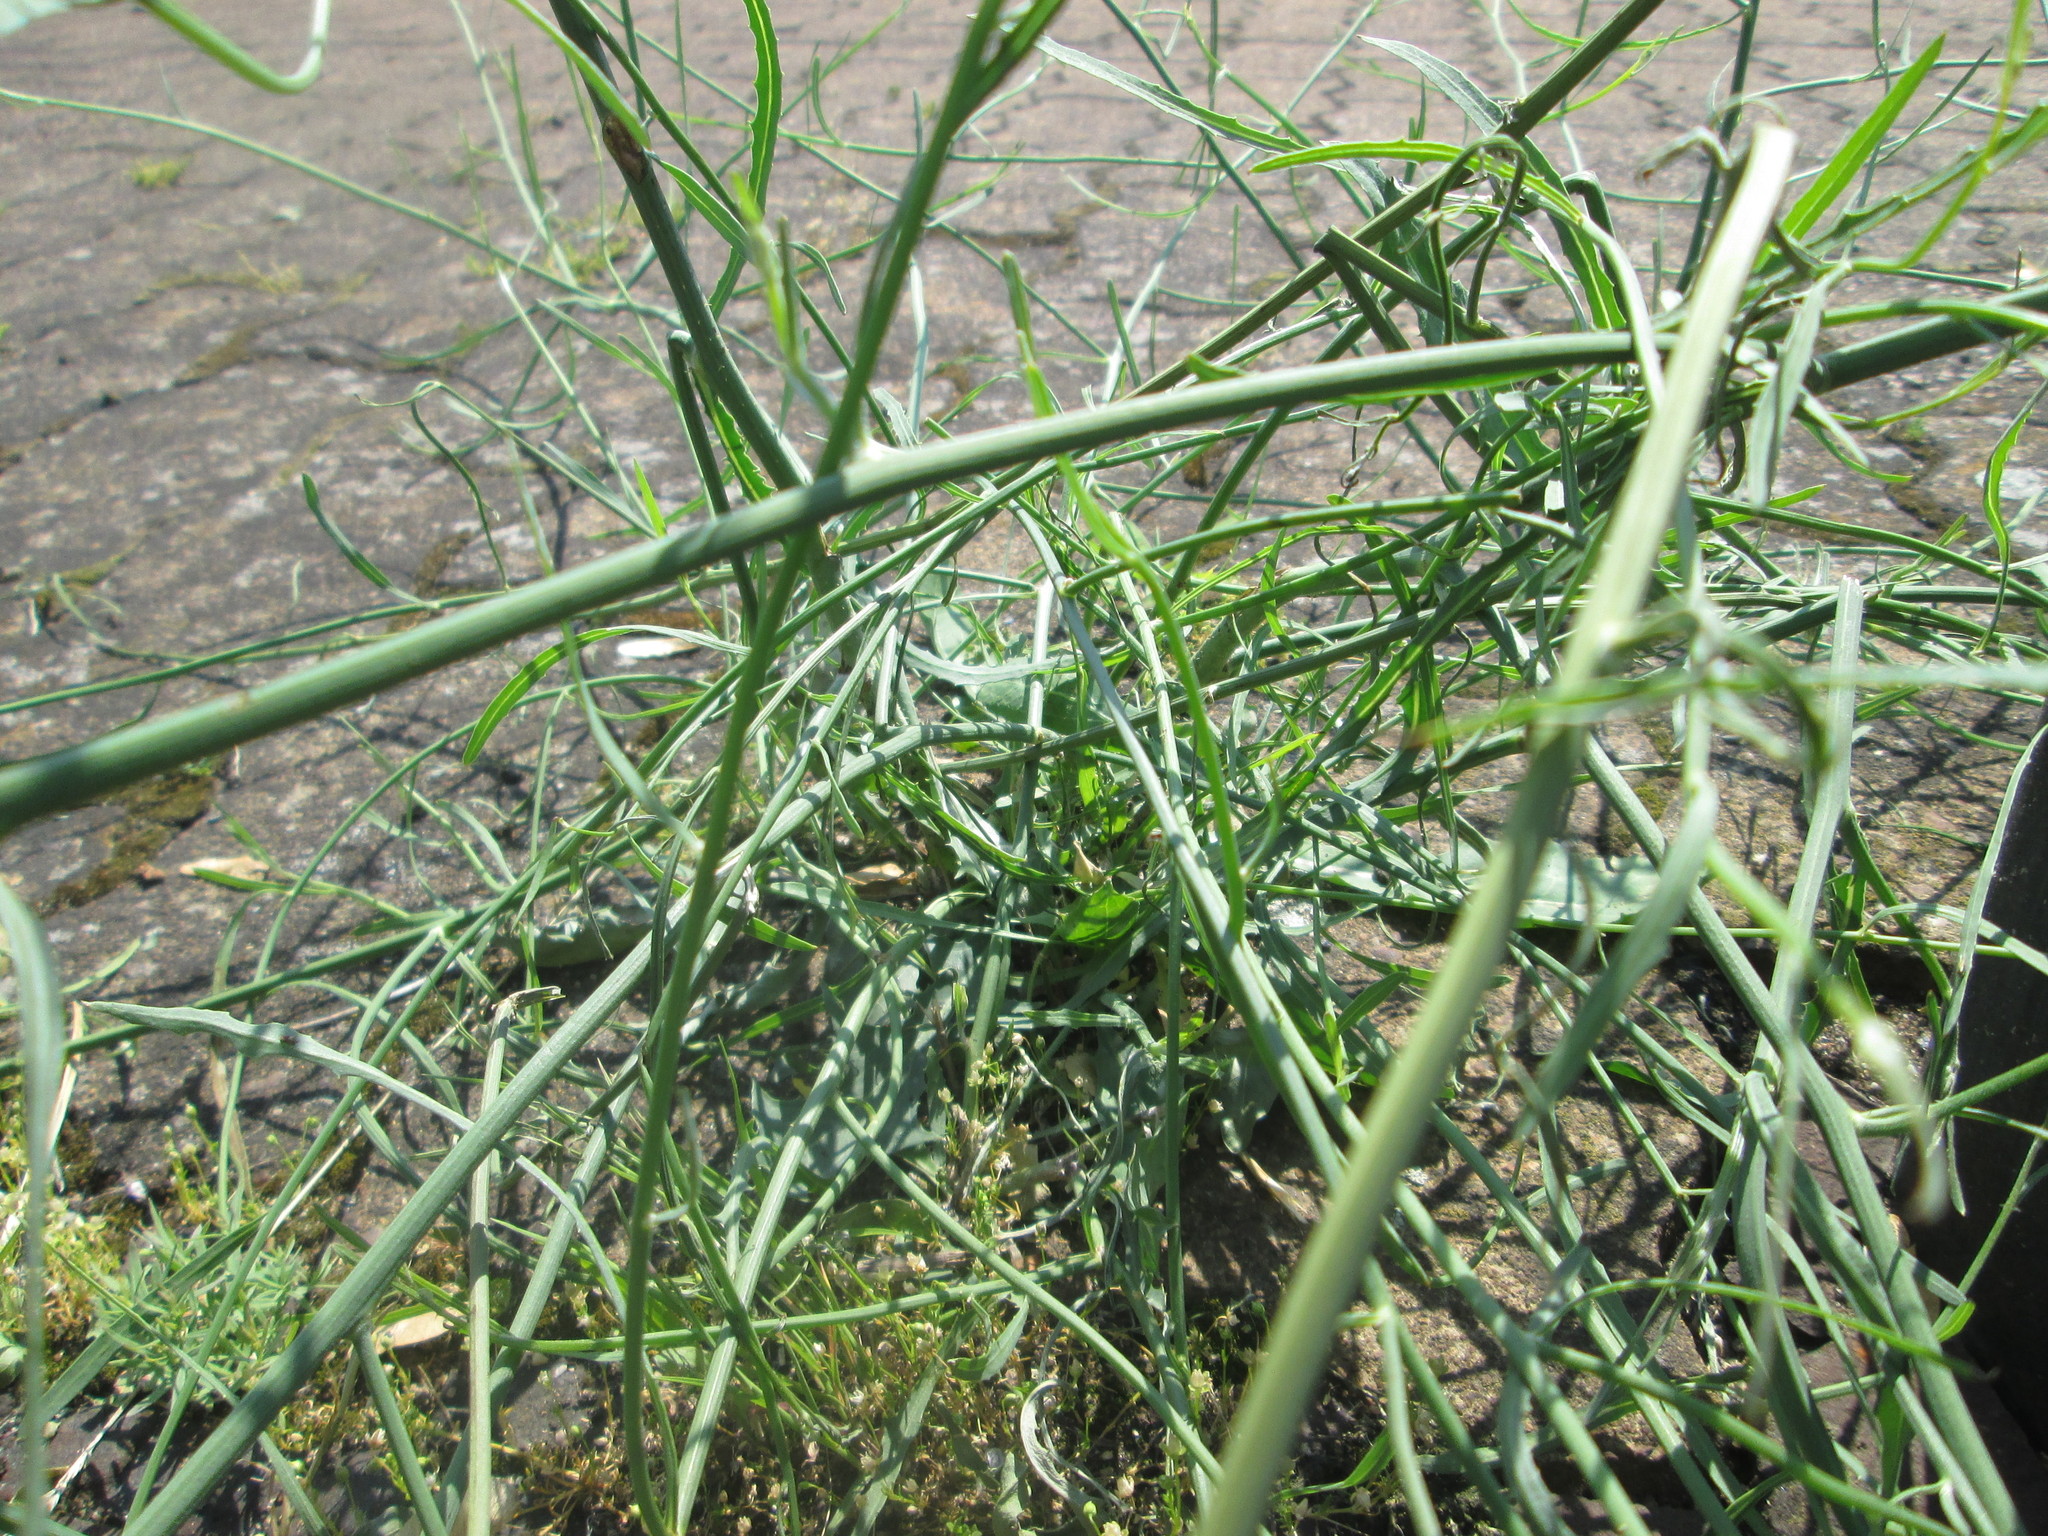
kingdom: Plantae
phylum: Tracheophyta
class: Magnoliopsida
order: Asterales
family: Asteraceae
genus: Chondrilla
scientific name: Chondrilla juncea
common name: Skeleton weed
